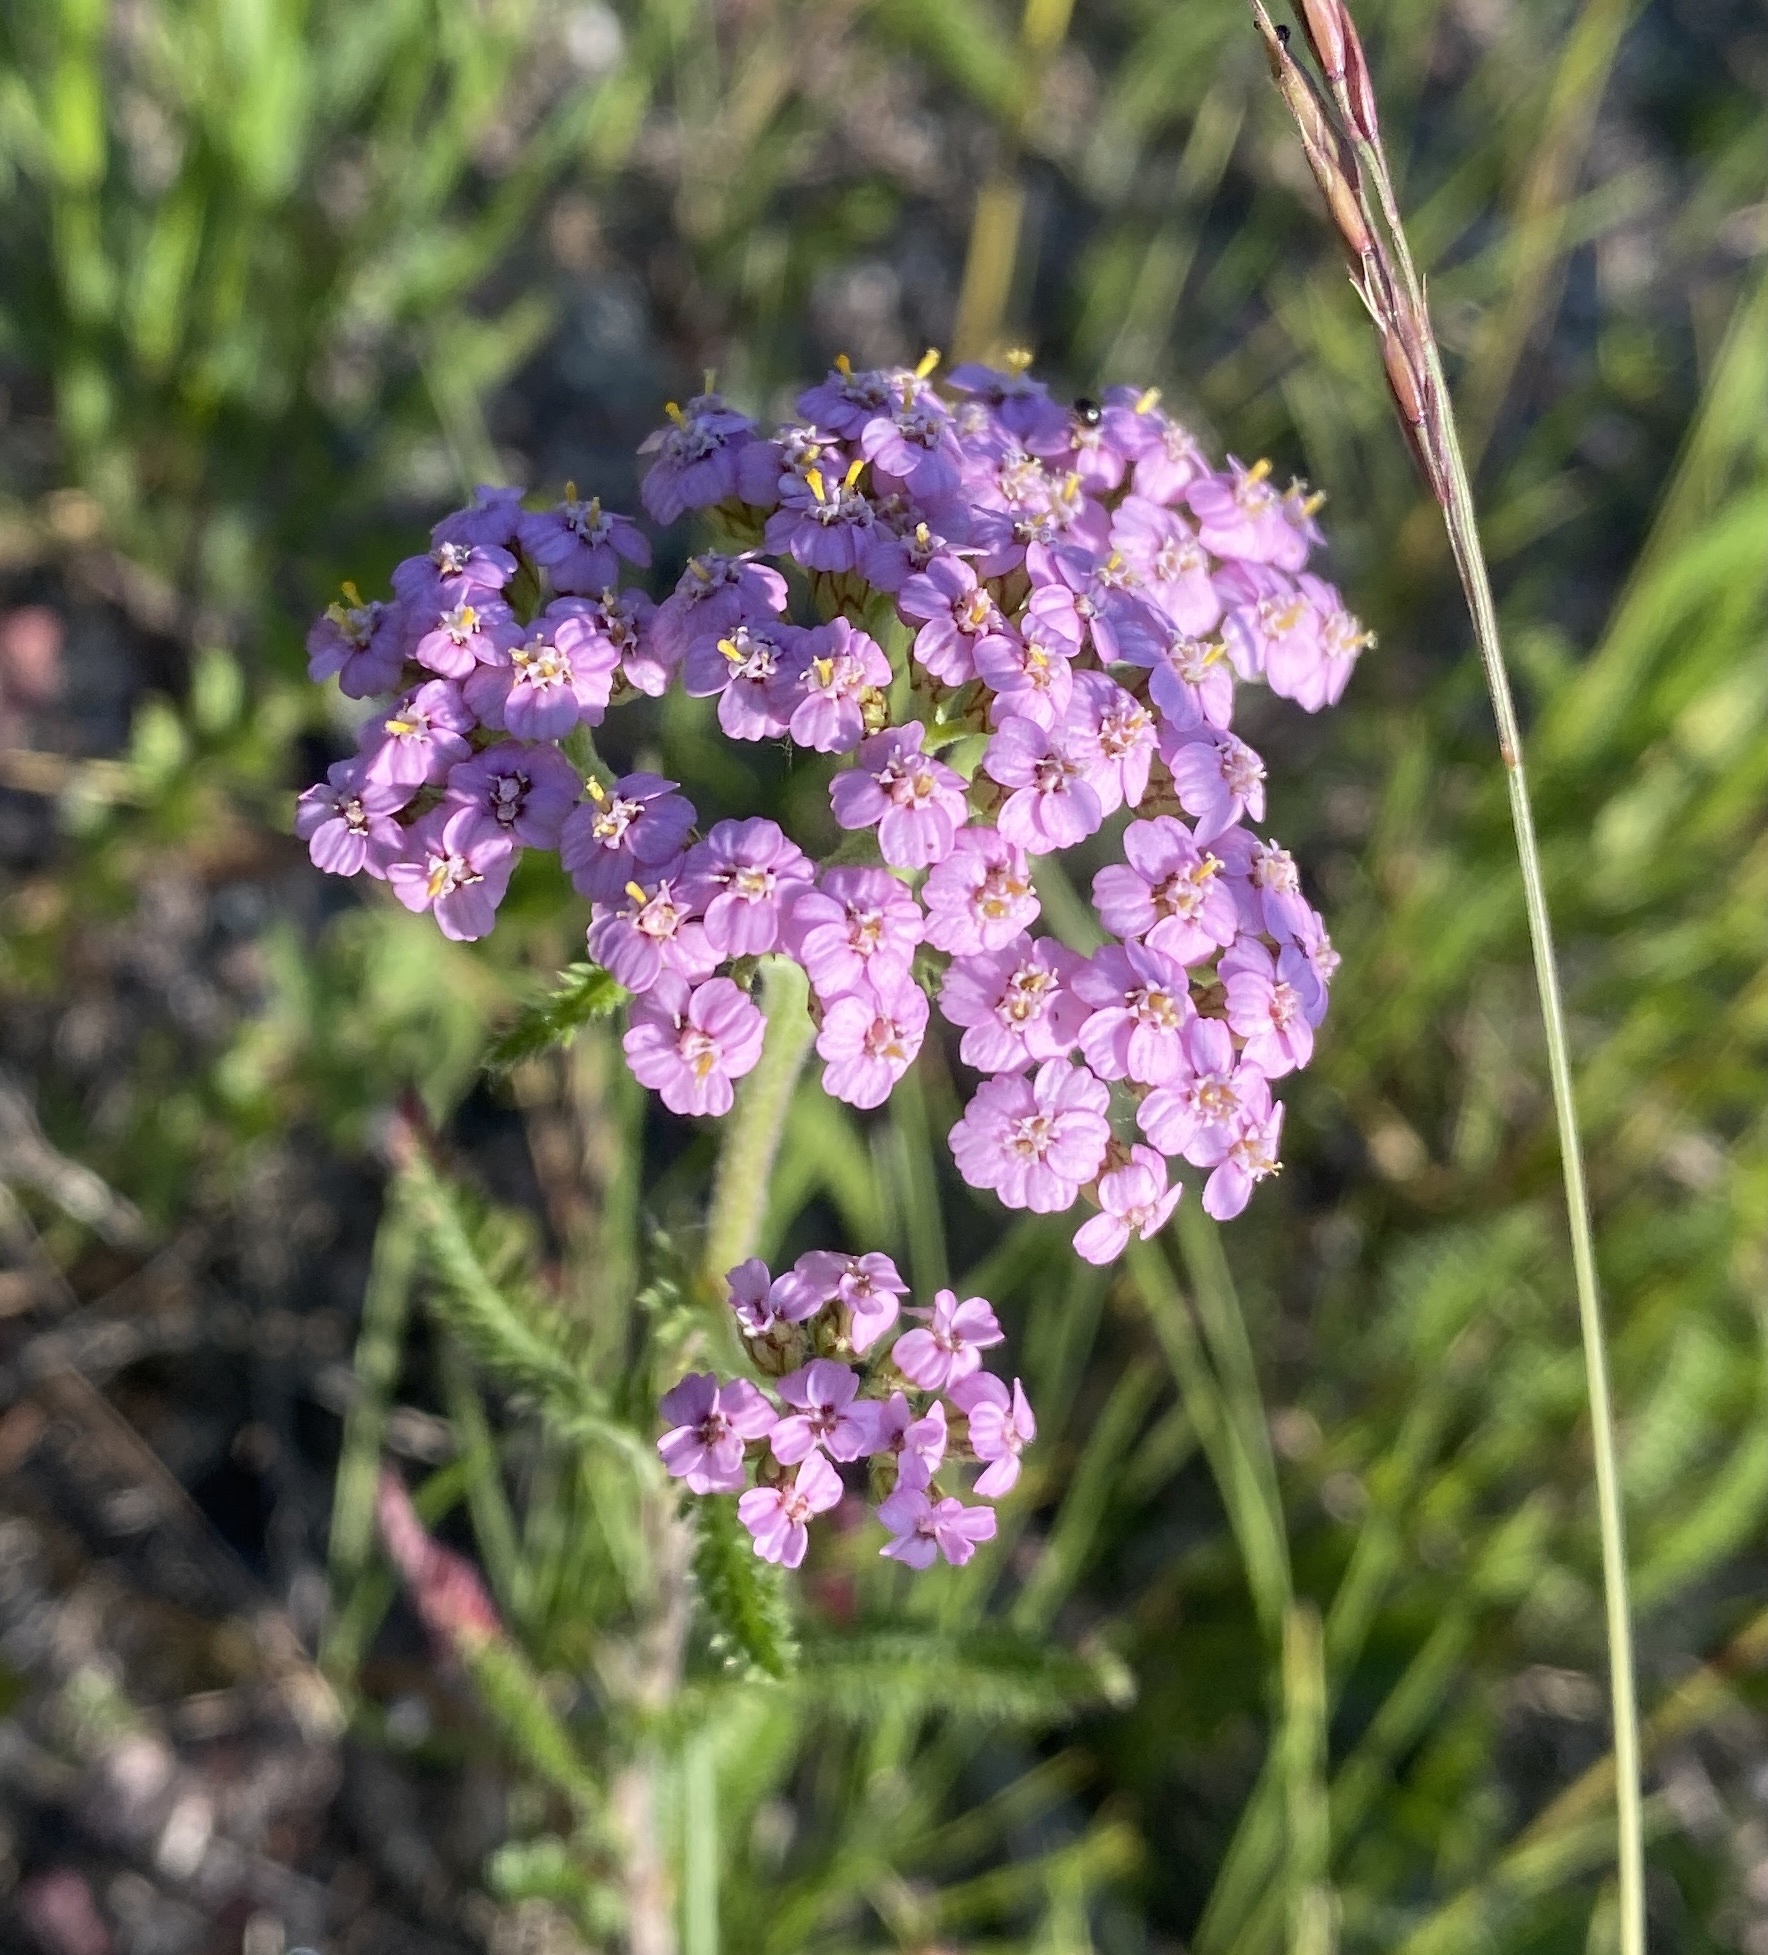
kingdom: Plantae
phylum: Tracheophyta
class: Magnoliopsida
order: Asterales
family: Asteraceae
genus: Achillea
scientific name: Achillea millefolium
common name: Yarrow
